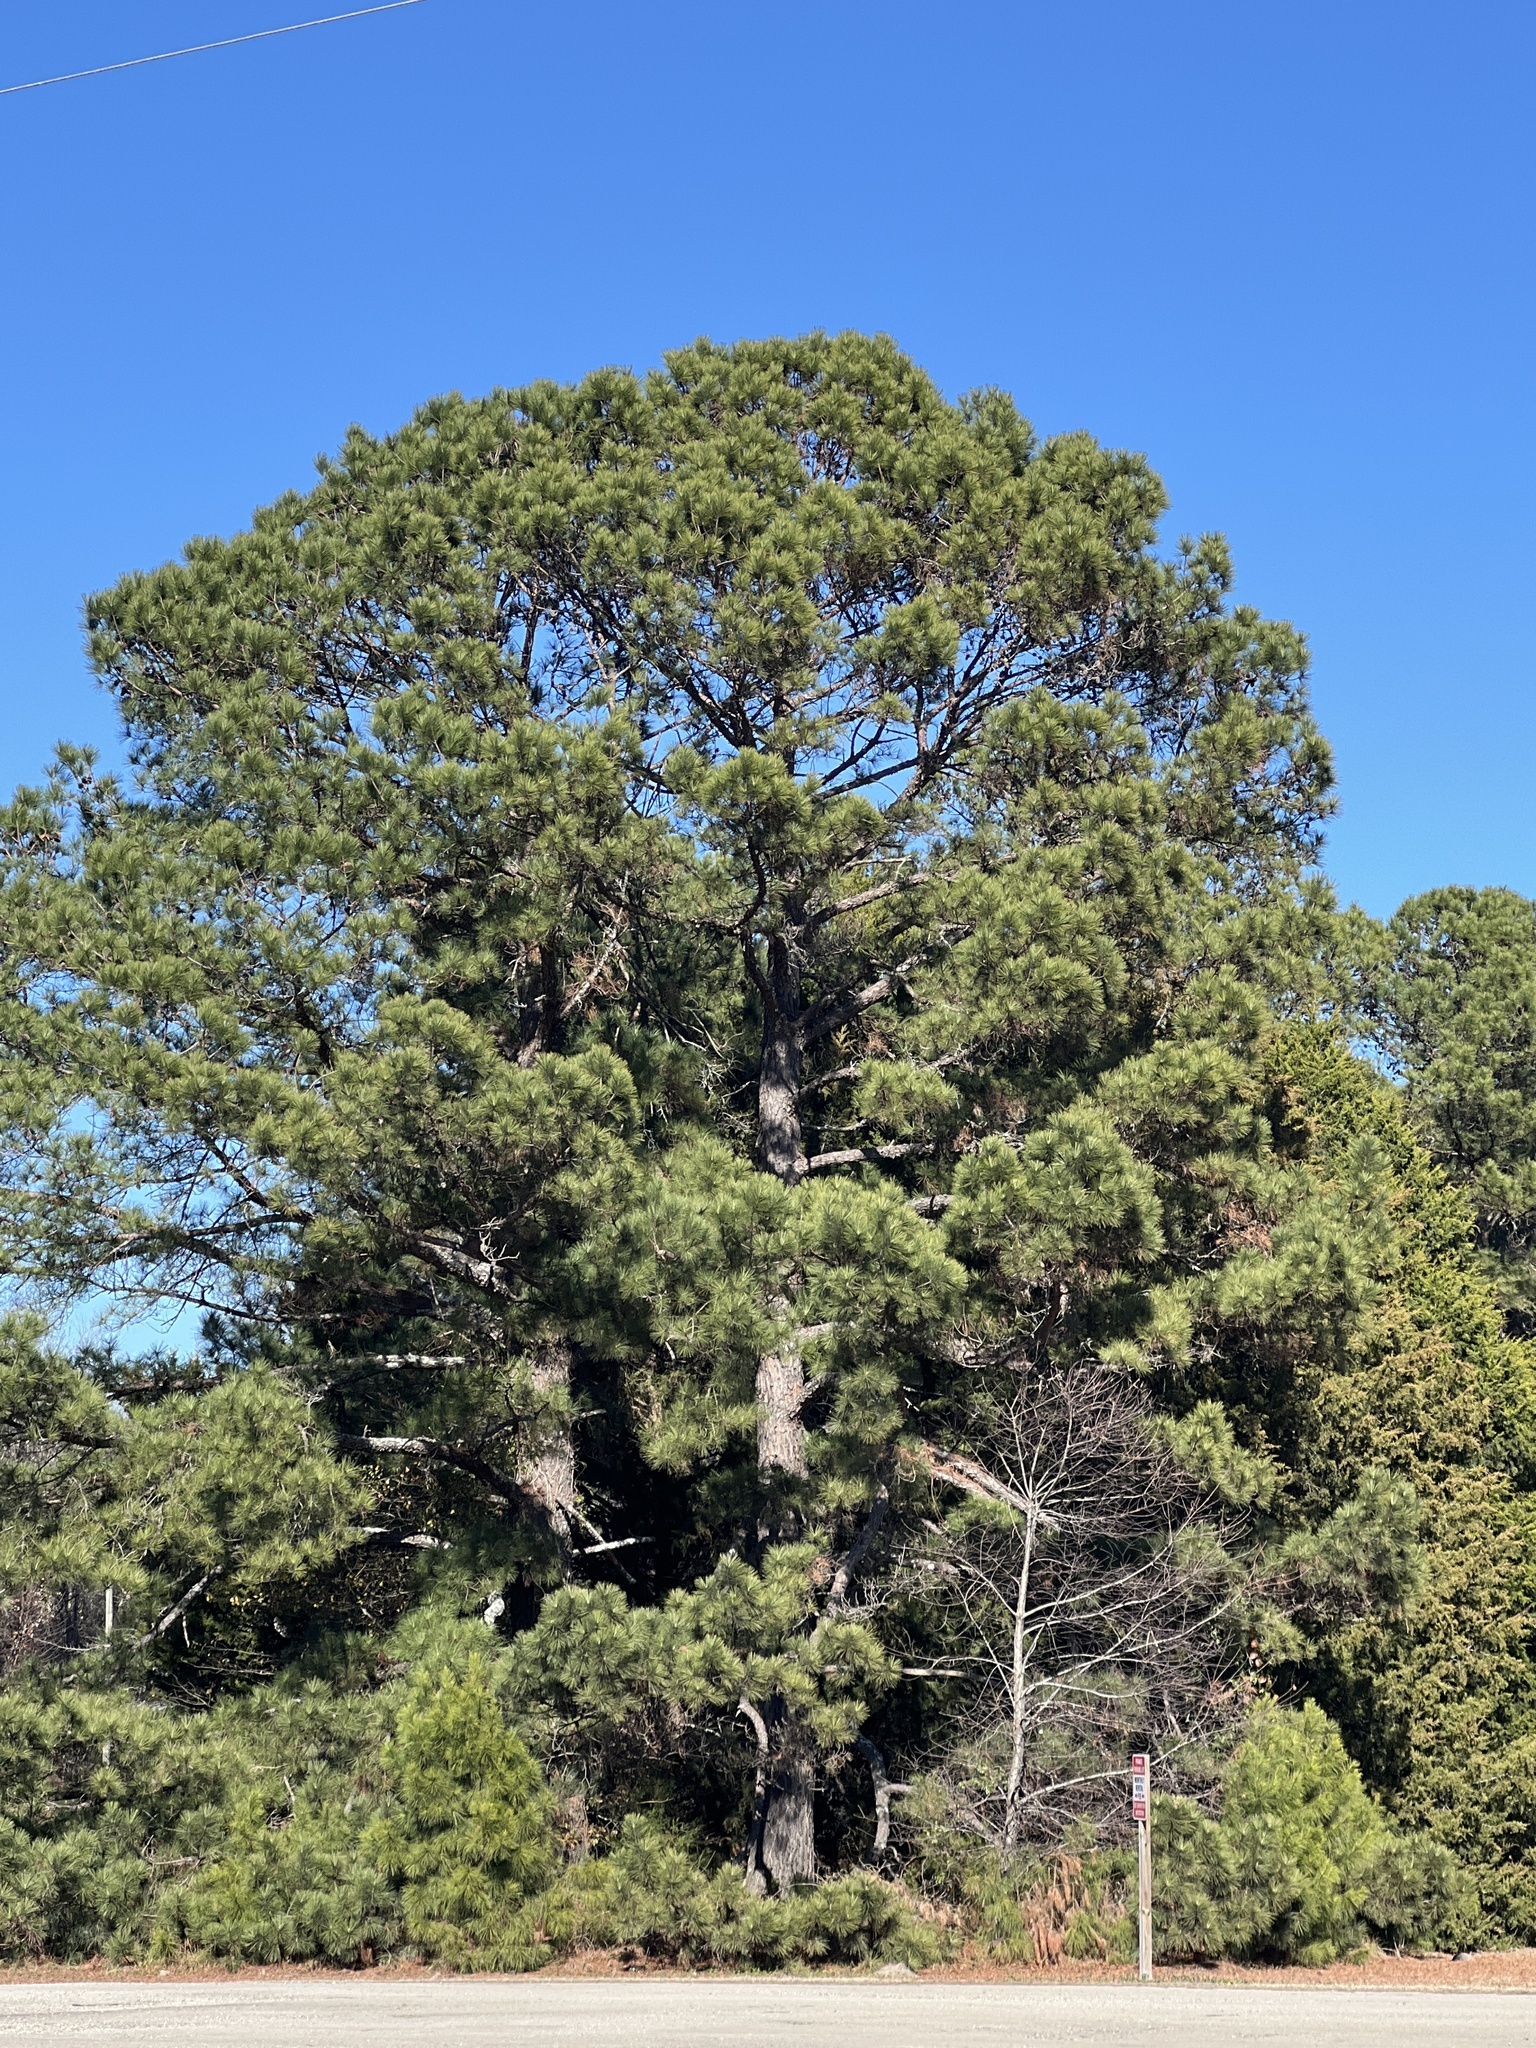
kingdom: Plantae
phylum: Tracheophyta
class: Pinopsida
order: Pinales
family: Pinaceae
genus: Pinus
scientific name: Pinus taeda
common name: Loblolly pine
